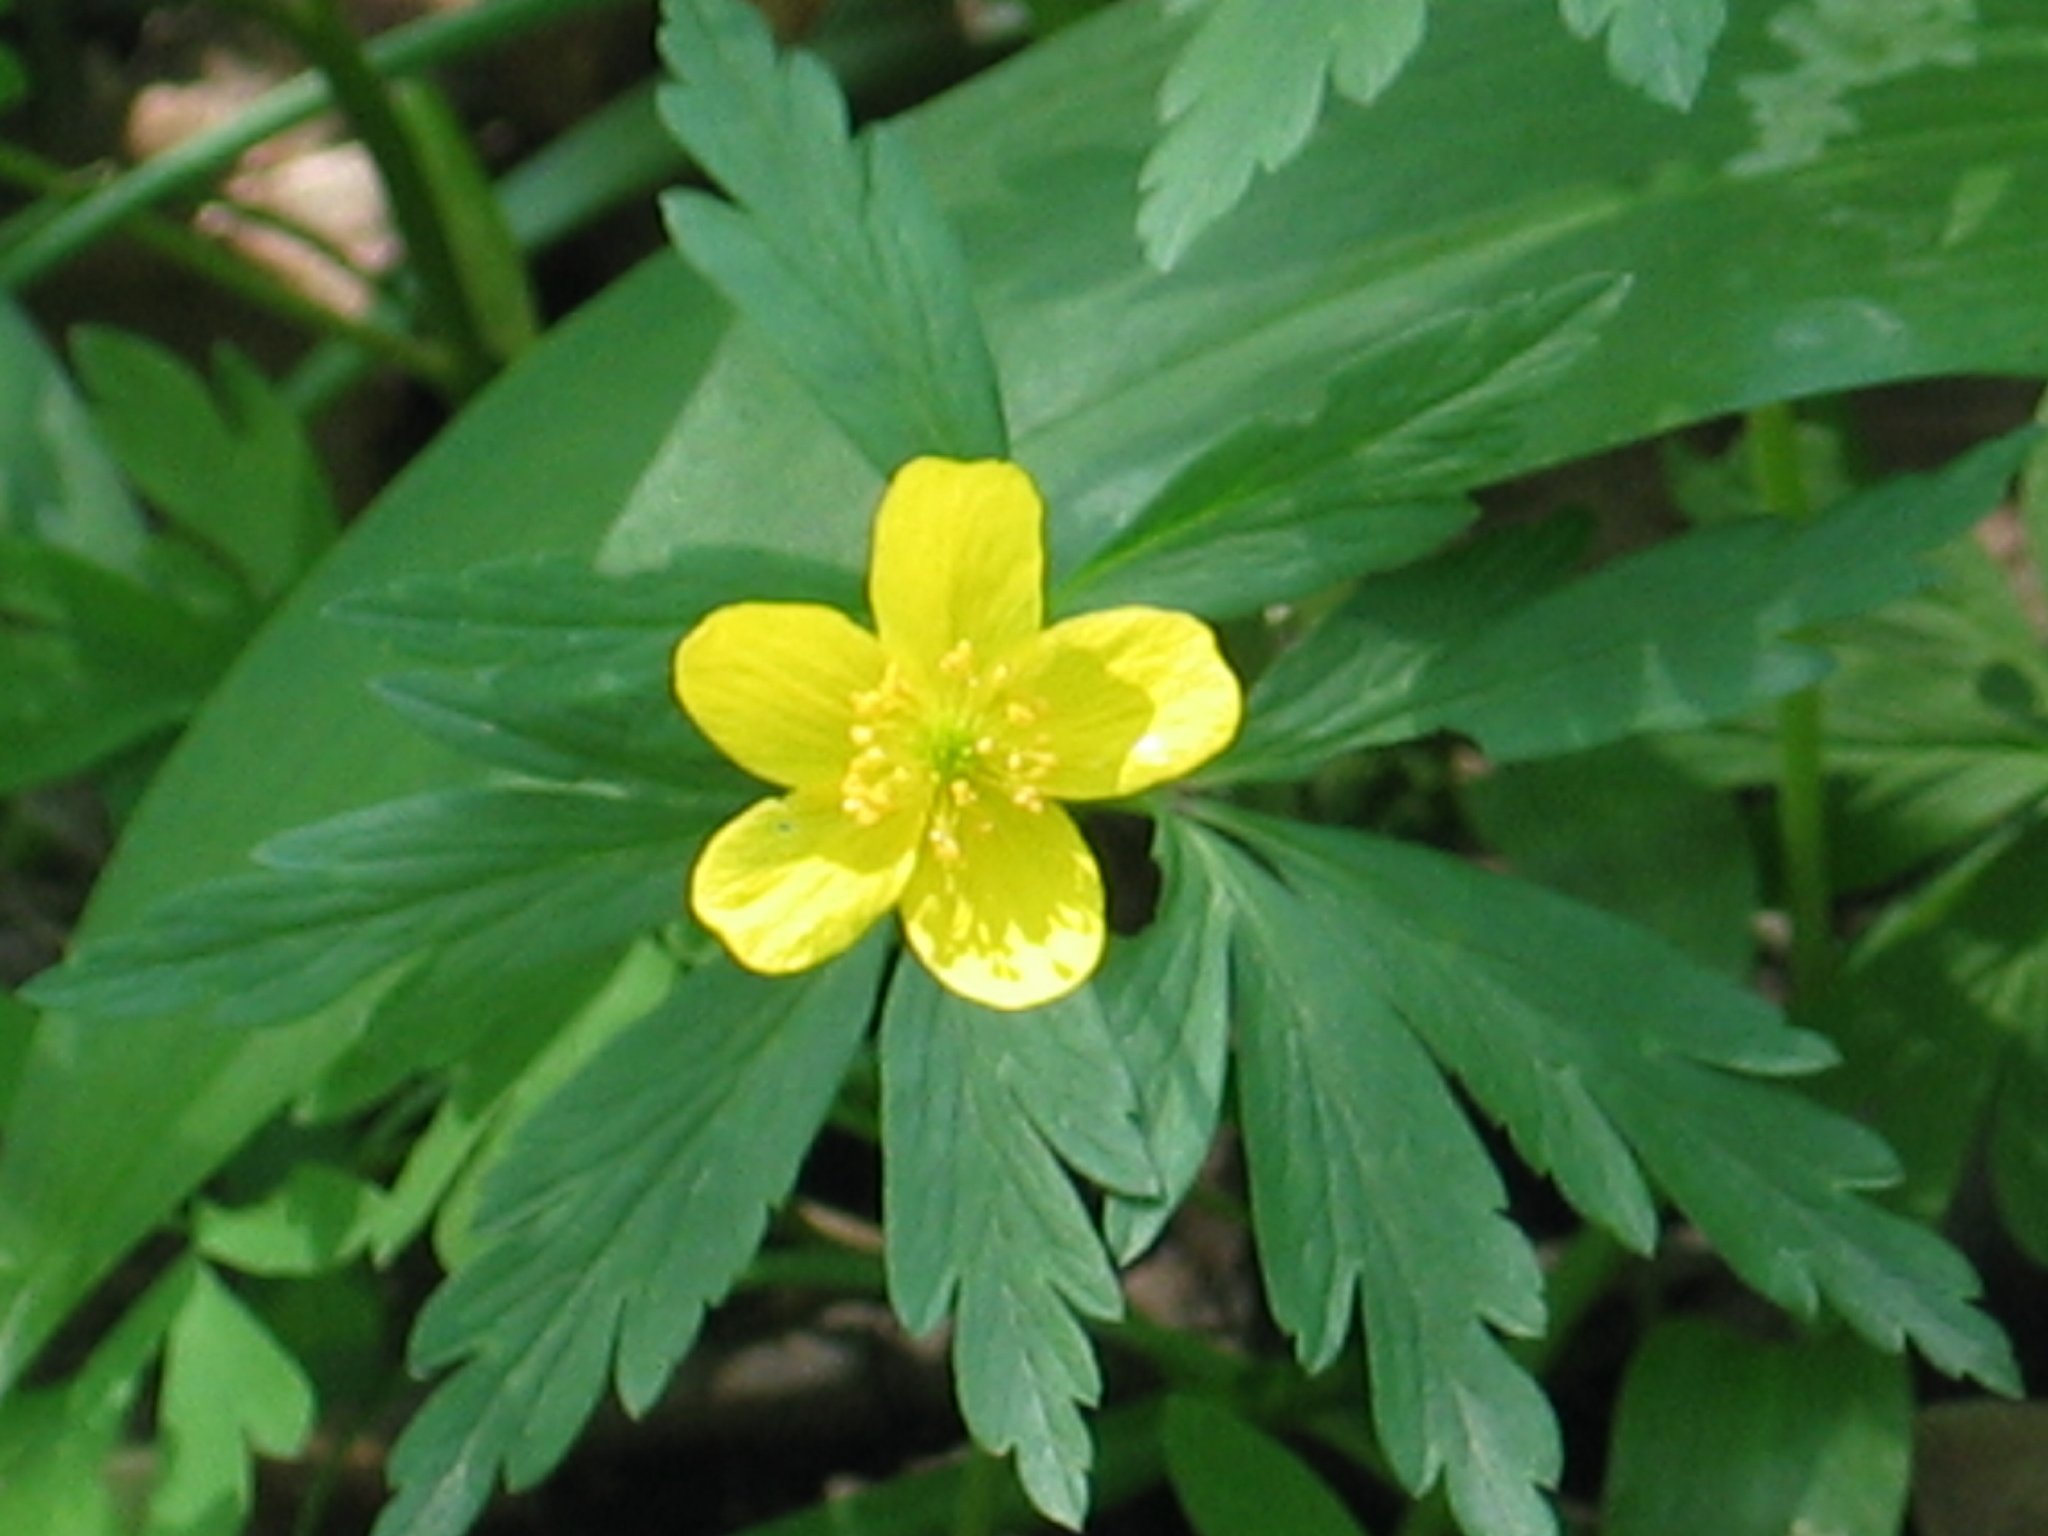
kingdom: Plantae
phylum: Tracheophyta
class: Magnoliopsida
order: Ranunculales
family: Ranunculaceae
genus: Anemone
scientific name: Anemone ranunculoides
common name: Yellow anemone
